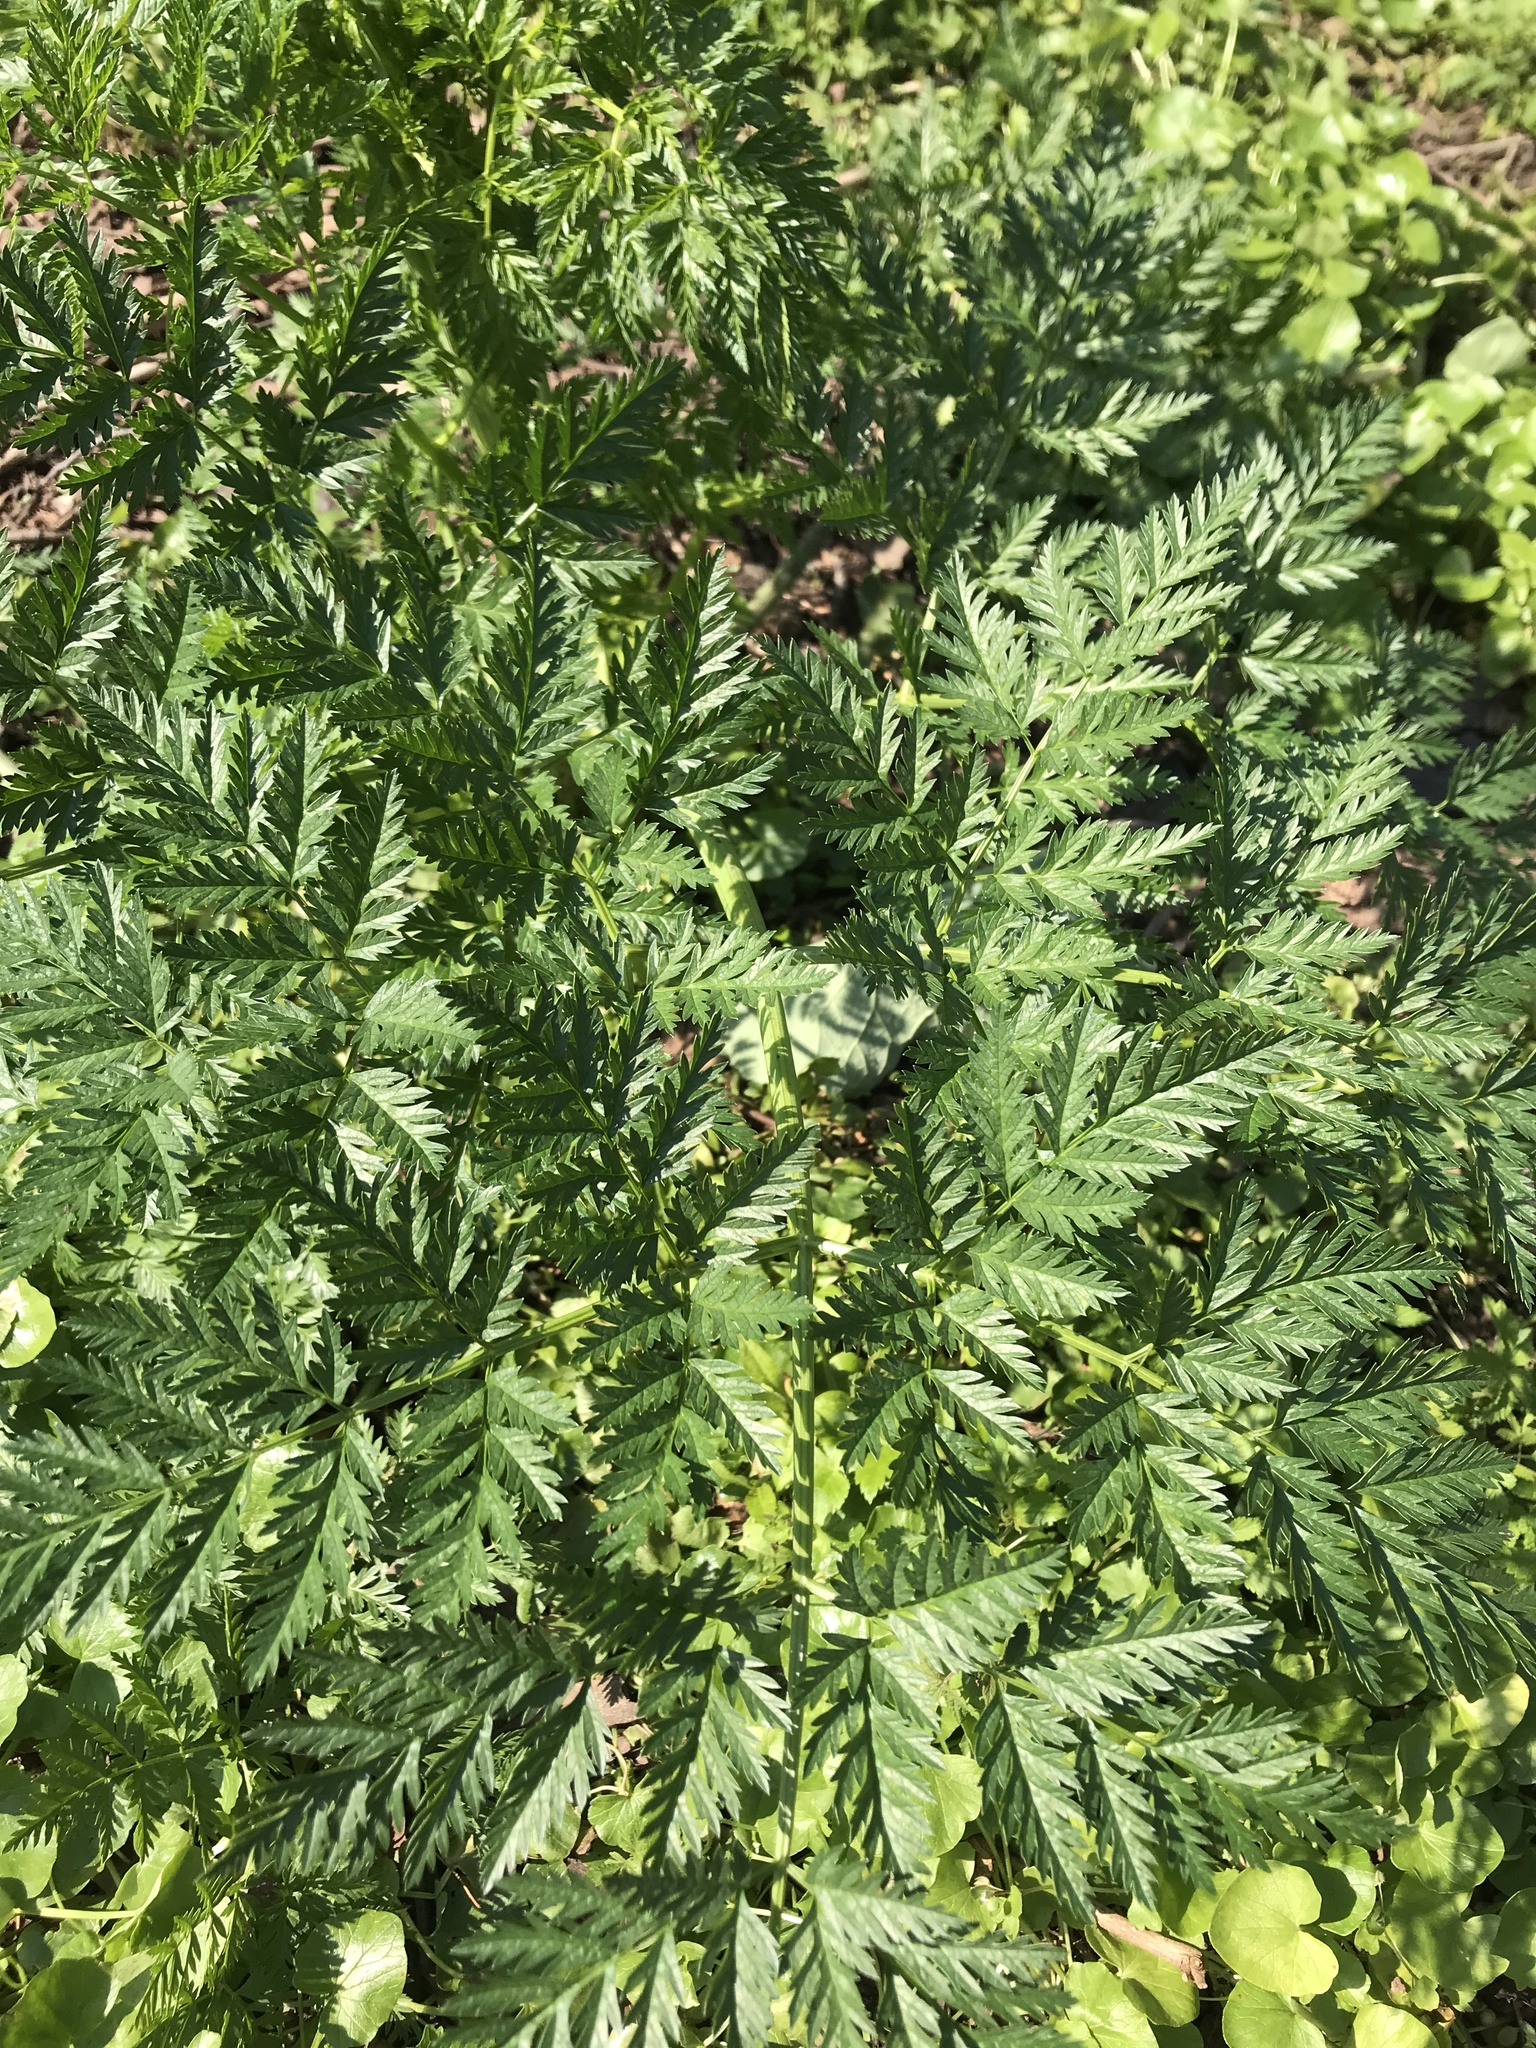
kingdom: Plantae
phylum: Tracheophyta
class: Magnoliopsida
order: Apiales
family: Apiaceae
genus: Conium
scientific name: Conium maculatum
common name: Hemlock
